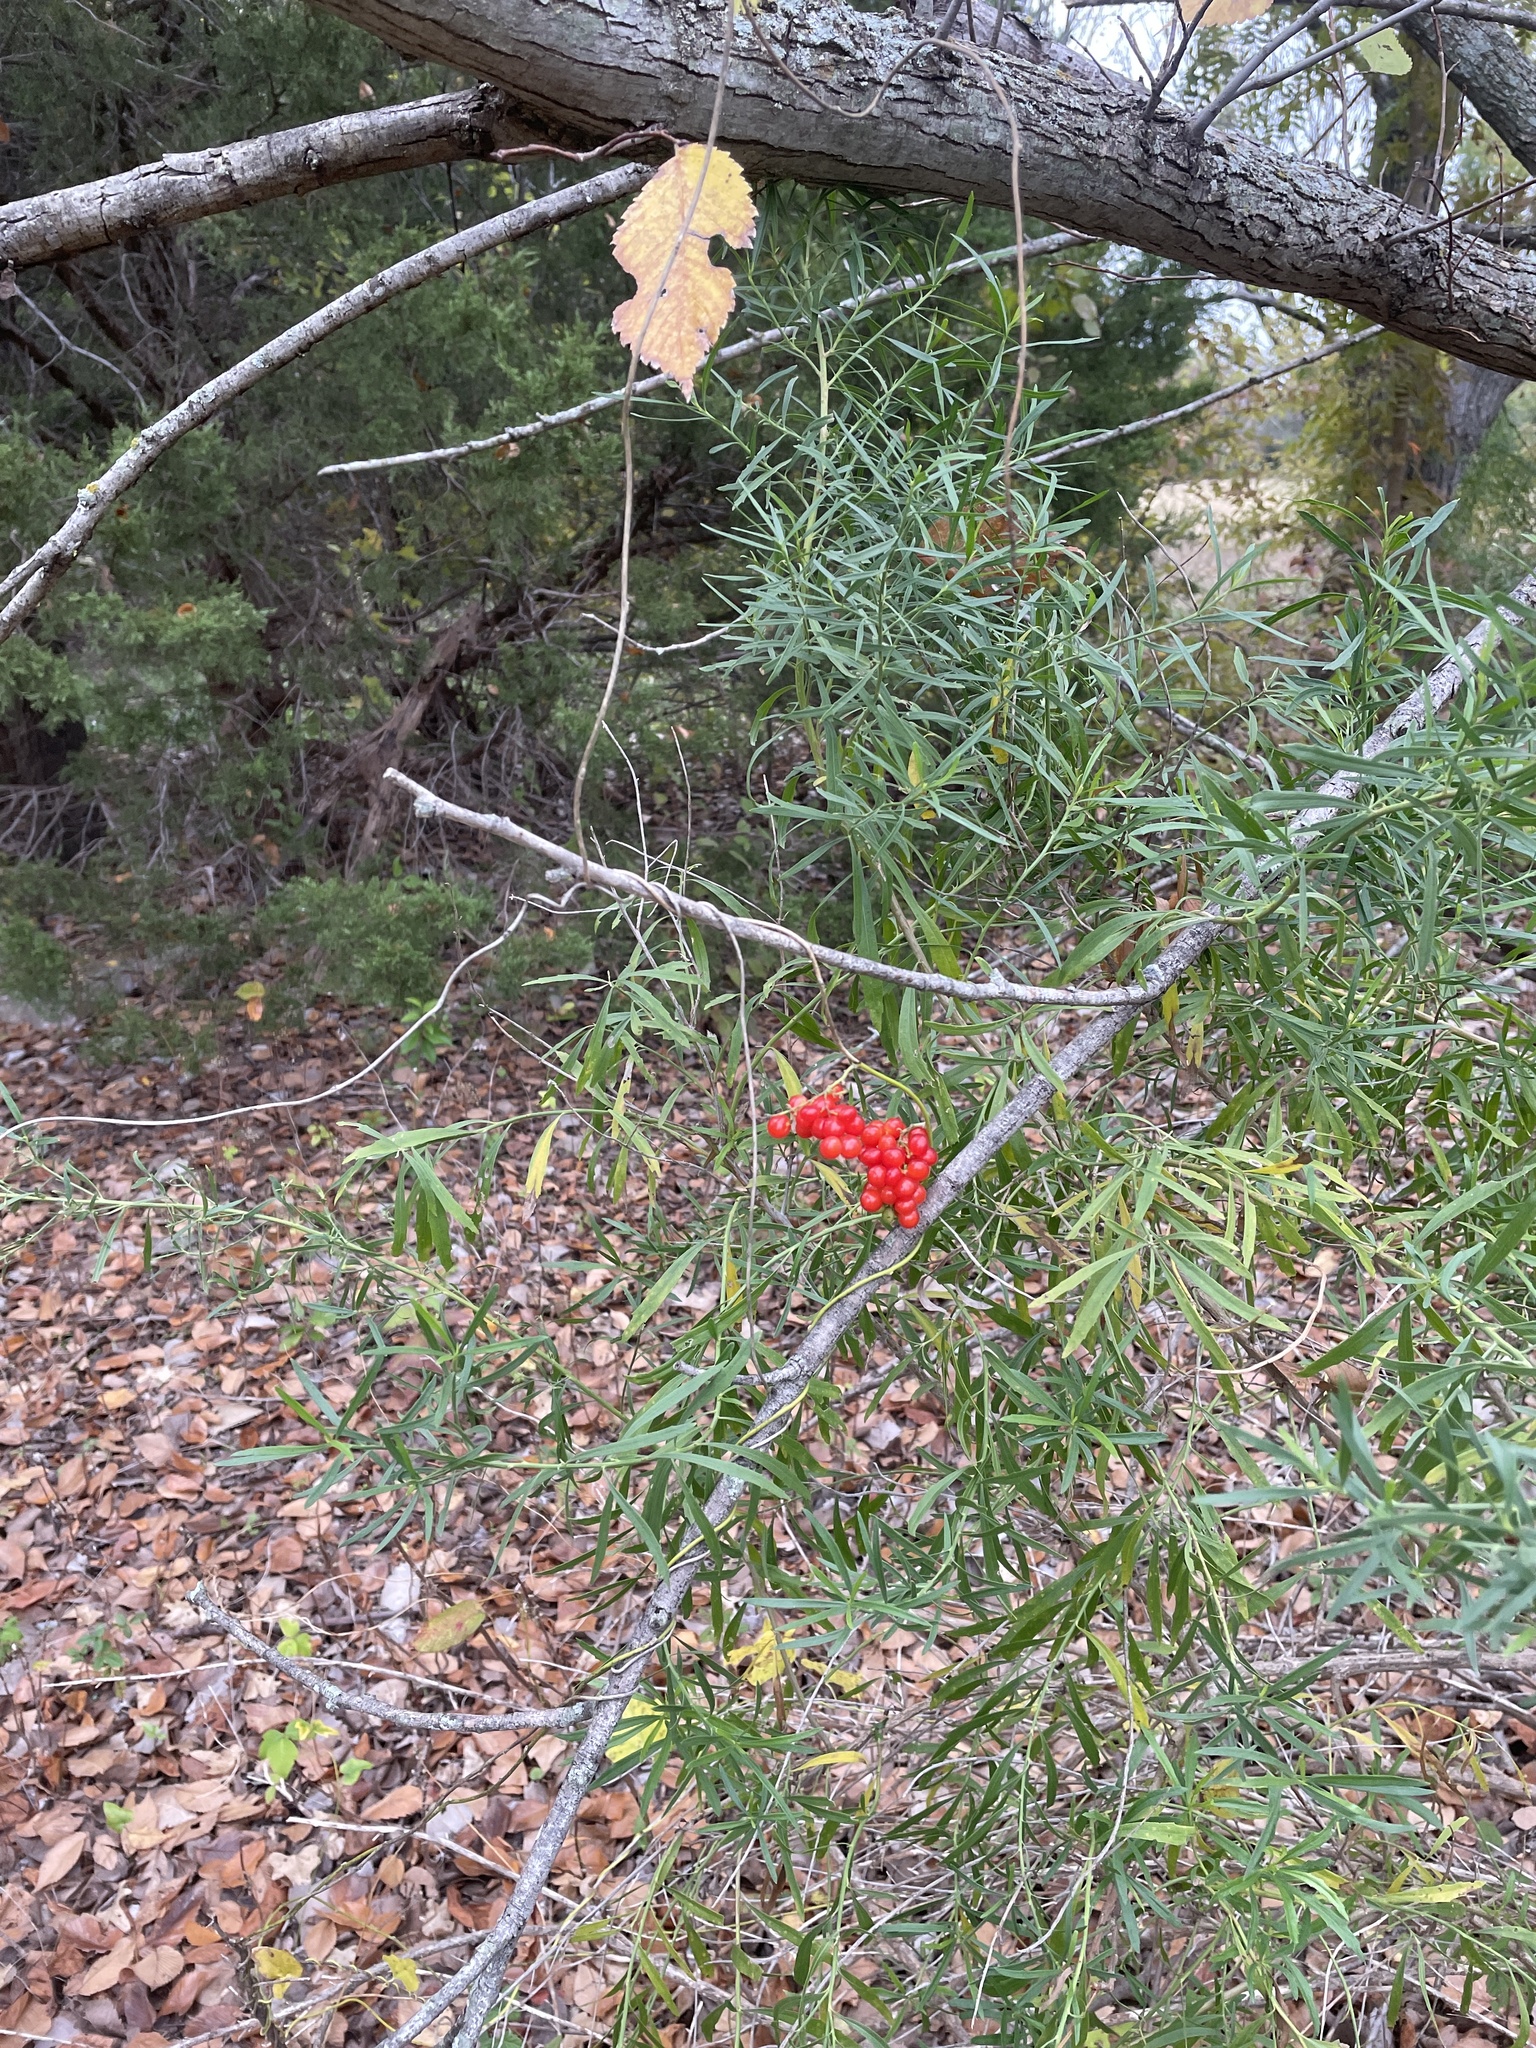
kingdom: Plantae
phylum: Tracheophyta
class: Magnoliopsida
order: Ranunculales
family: Menispermaceae
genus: Cocculus
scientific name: Cocculus carolinus
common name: Carolina moonseed
